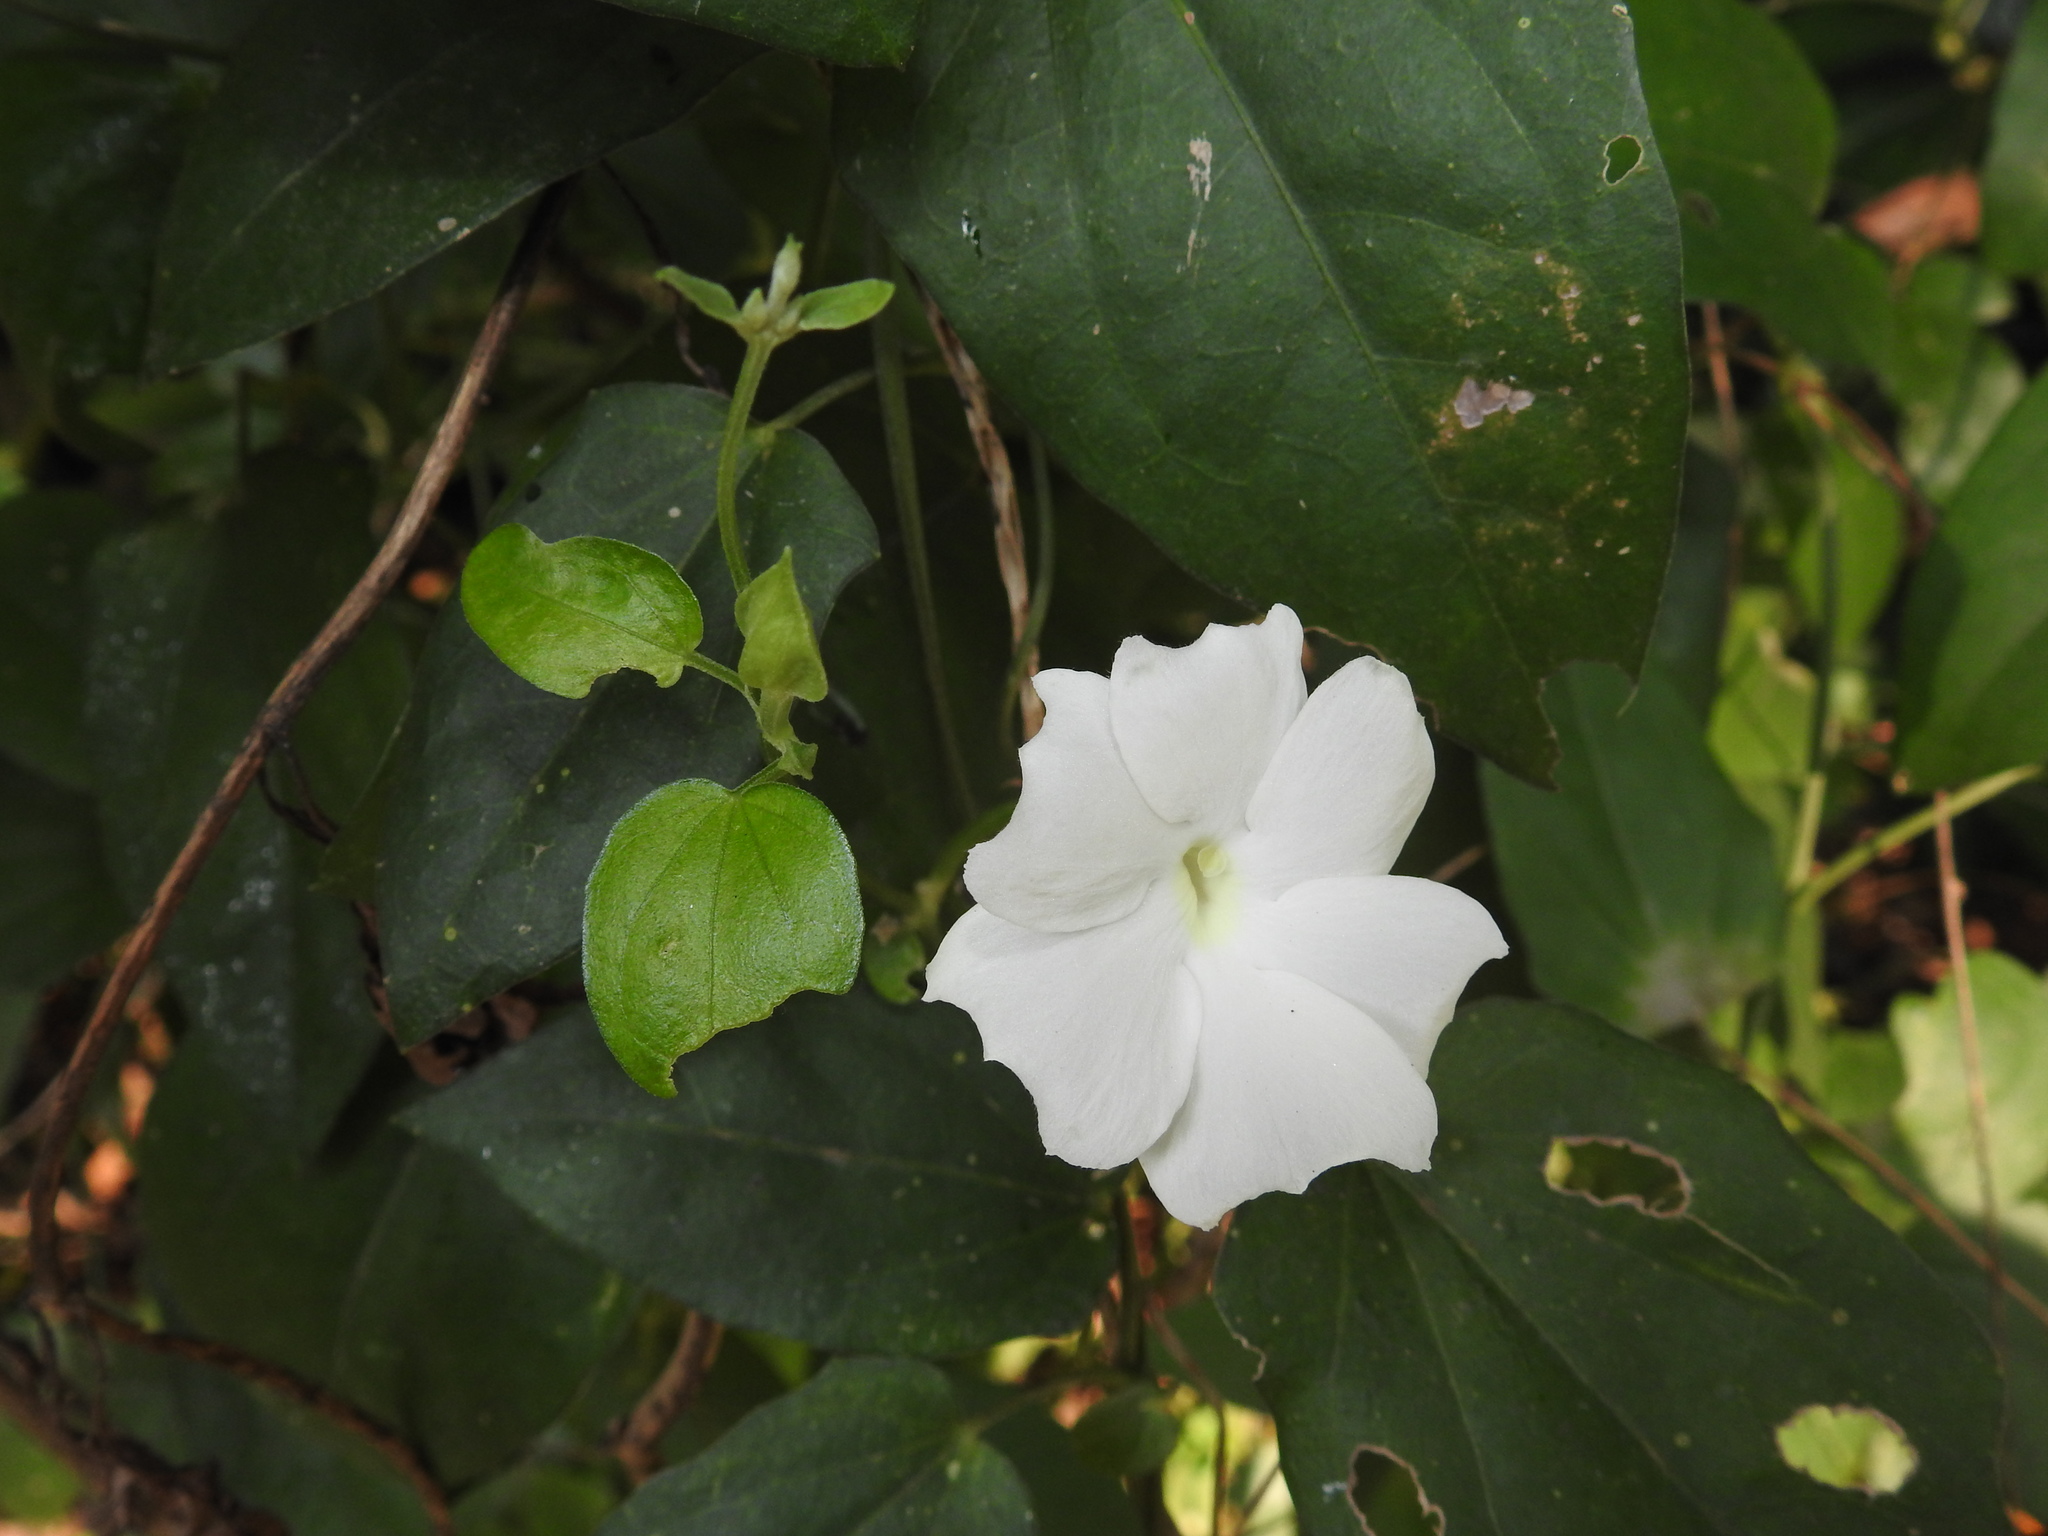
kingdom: Plantae
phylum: Tracheophyta
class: Magnoliopsida
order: Lamiales
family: Acanthaceae
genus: Thunbergia
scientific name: Thunbergia fragrans
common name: Whitelady
